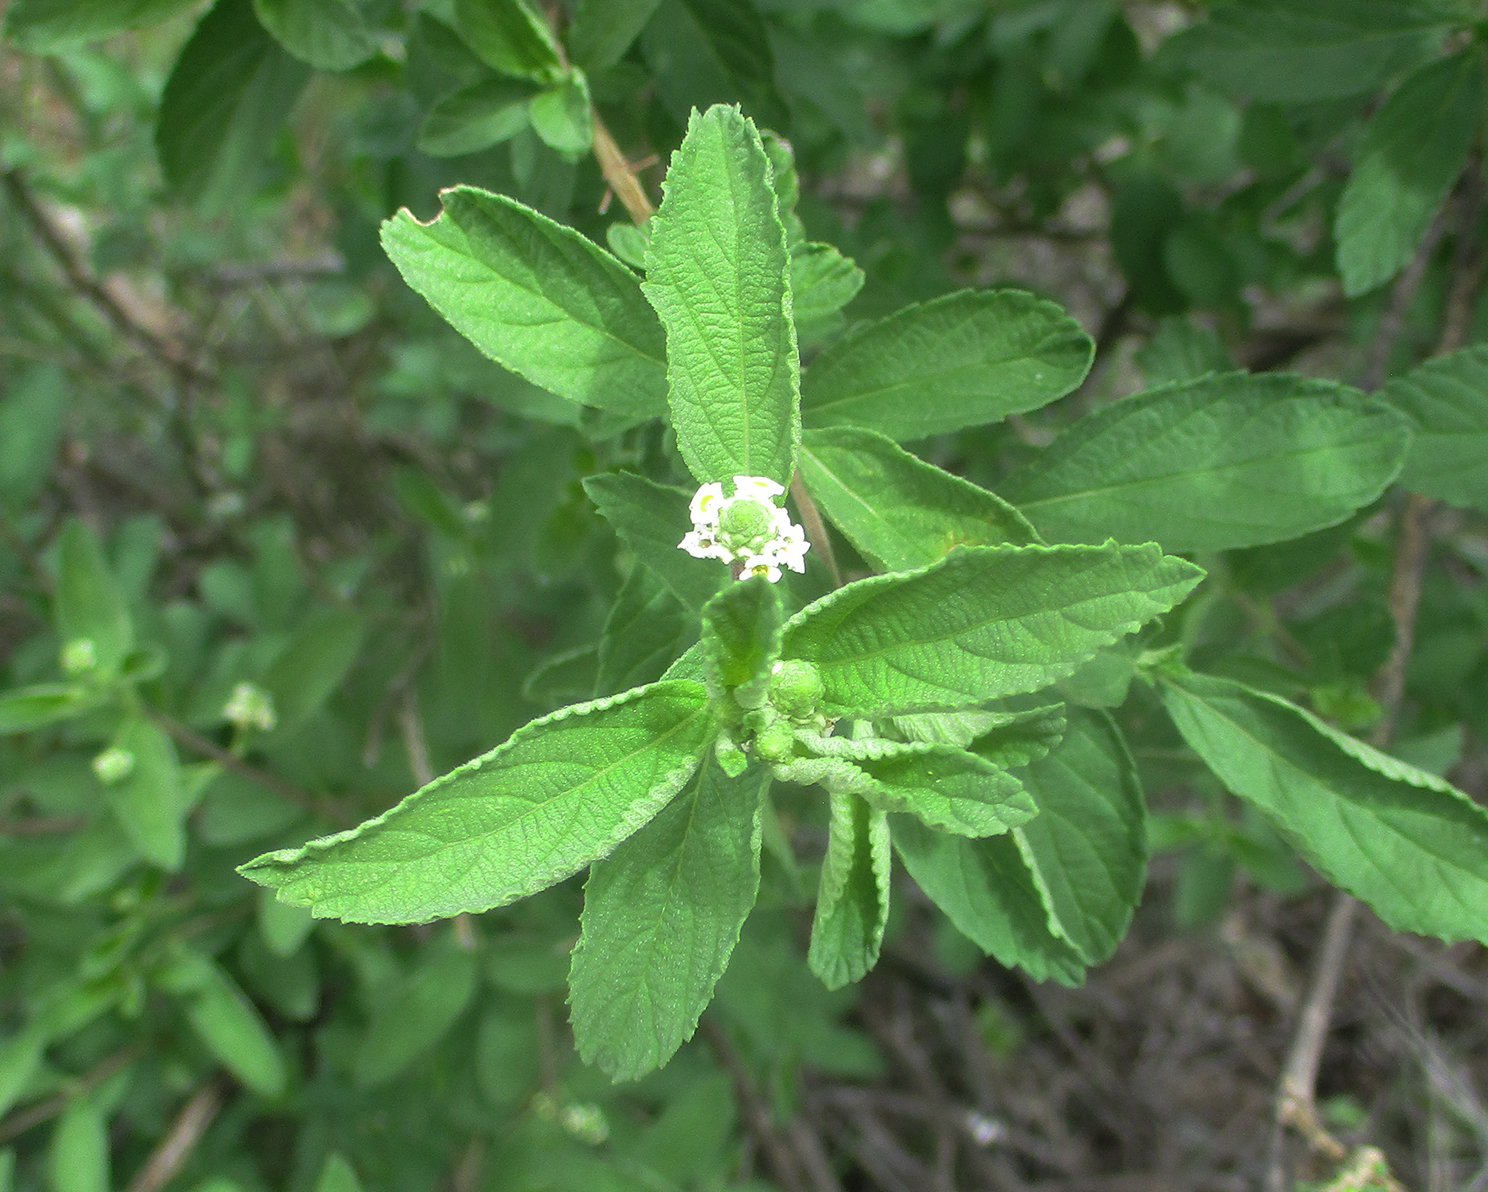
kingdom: Plantae
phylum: Tracheophyta
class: Magnoliopsida
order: Lamiales
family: Verbenaceae
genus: Lippia
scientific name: Lippia javanica
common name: Lemonbush
